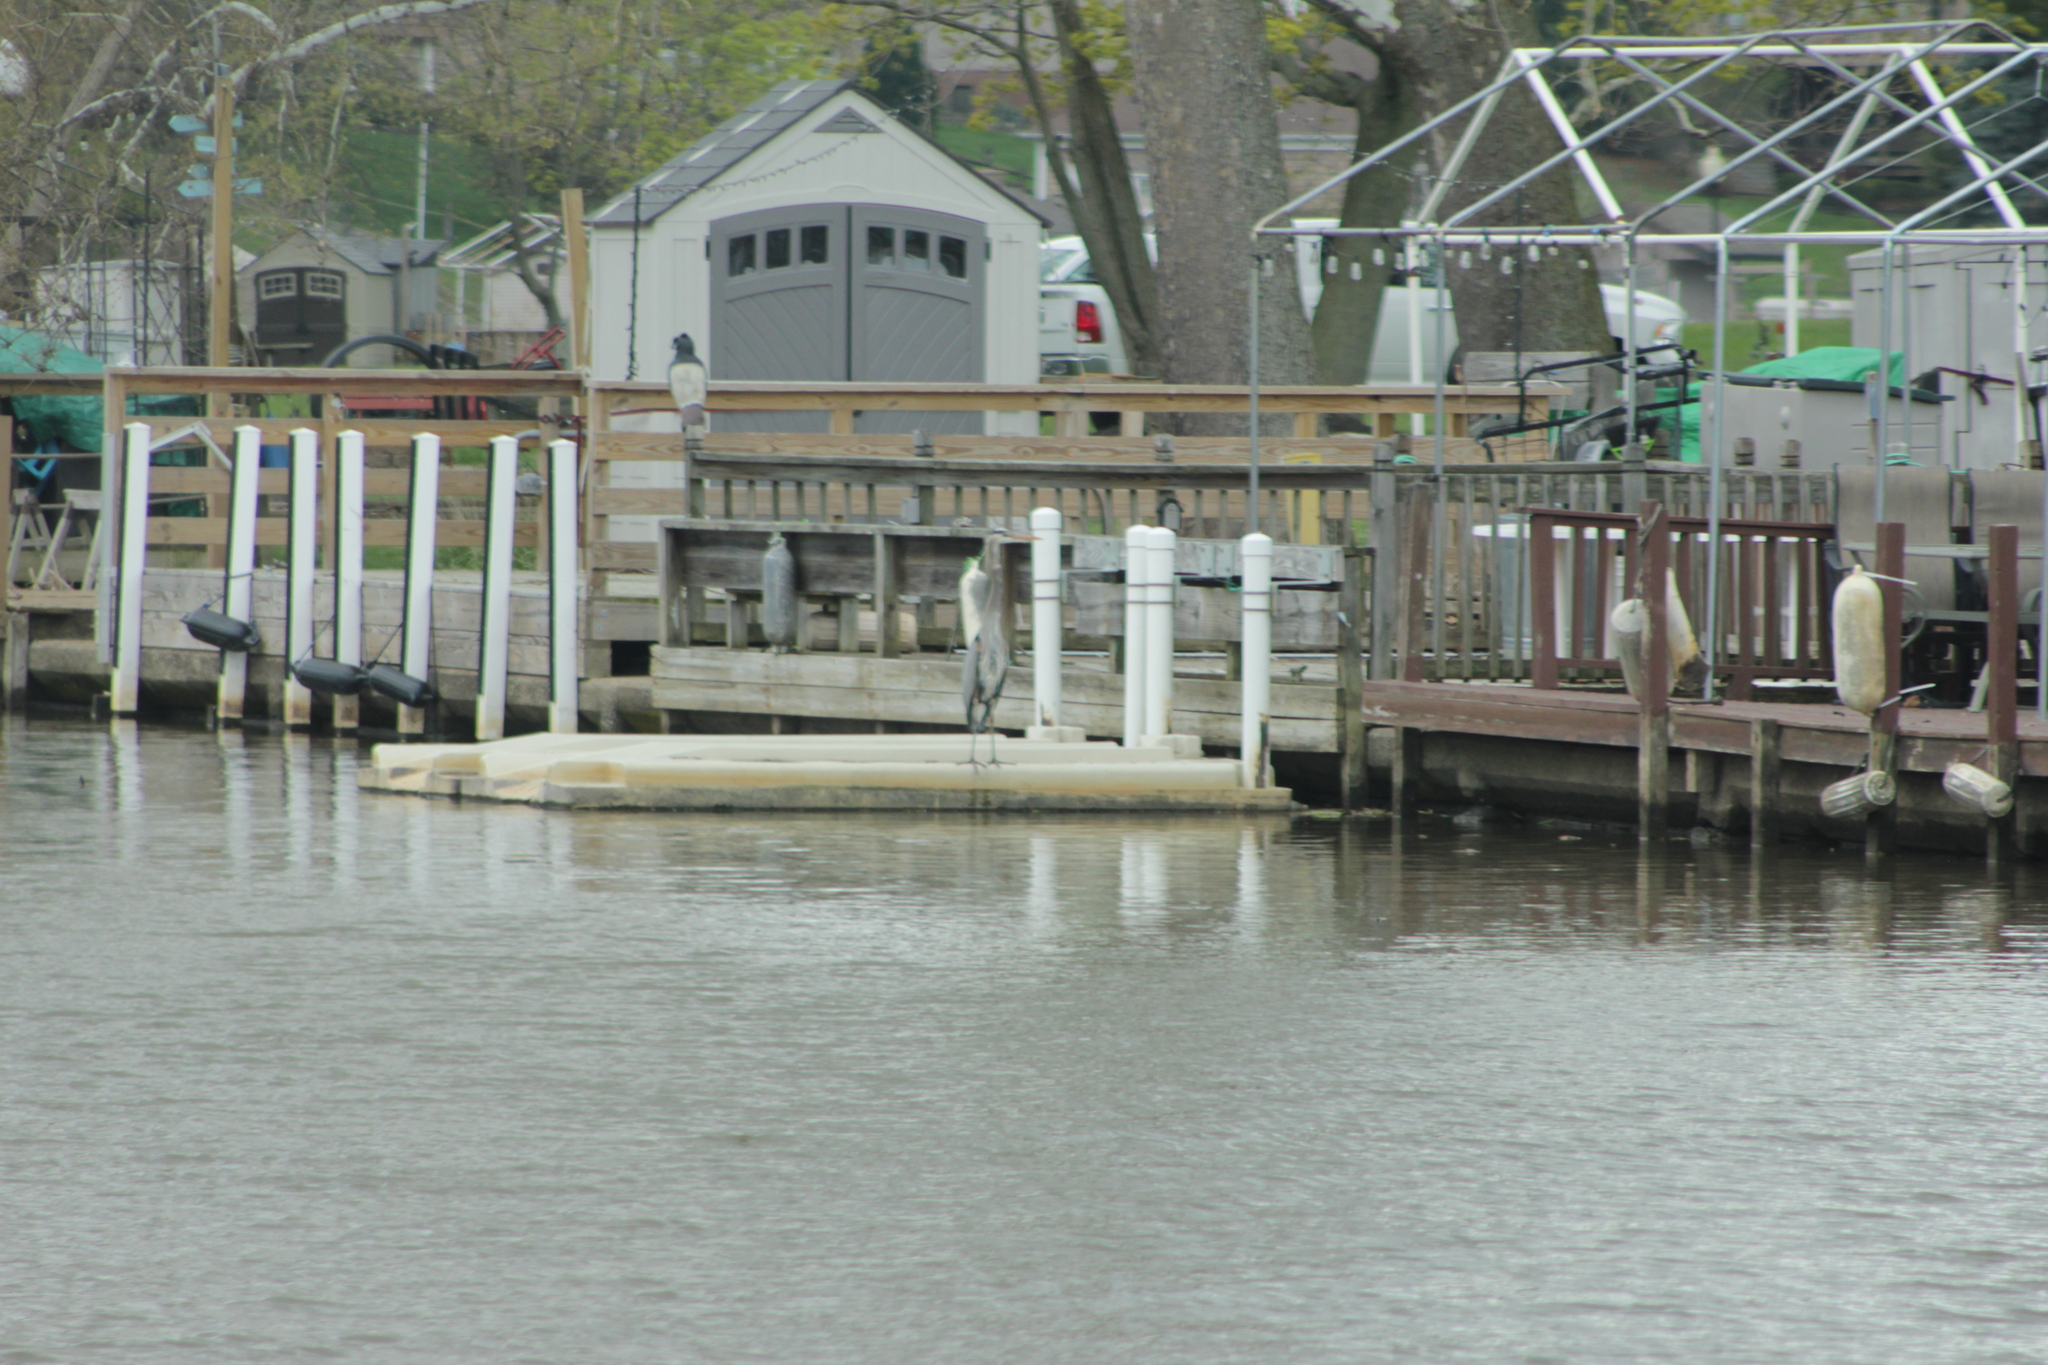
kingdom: Animalia
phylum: Chordata
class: Aves
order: Pelecaniformes
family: Ardeidae
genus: Ardea
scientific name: Ardea herodias
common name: Great blue heron
